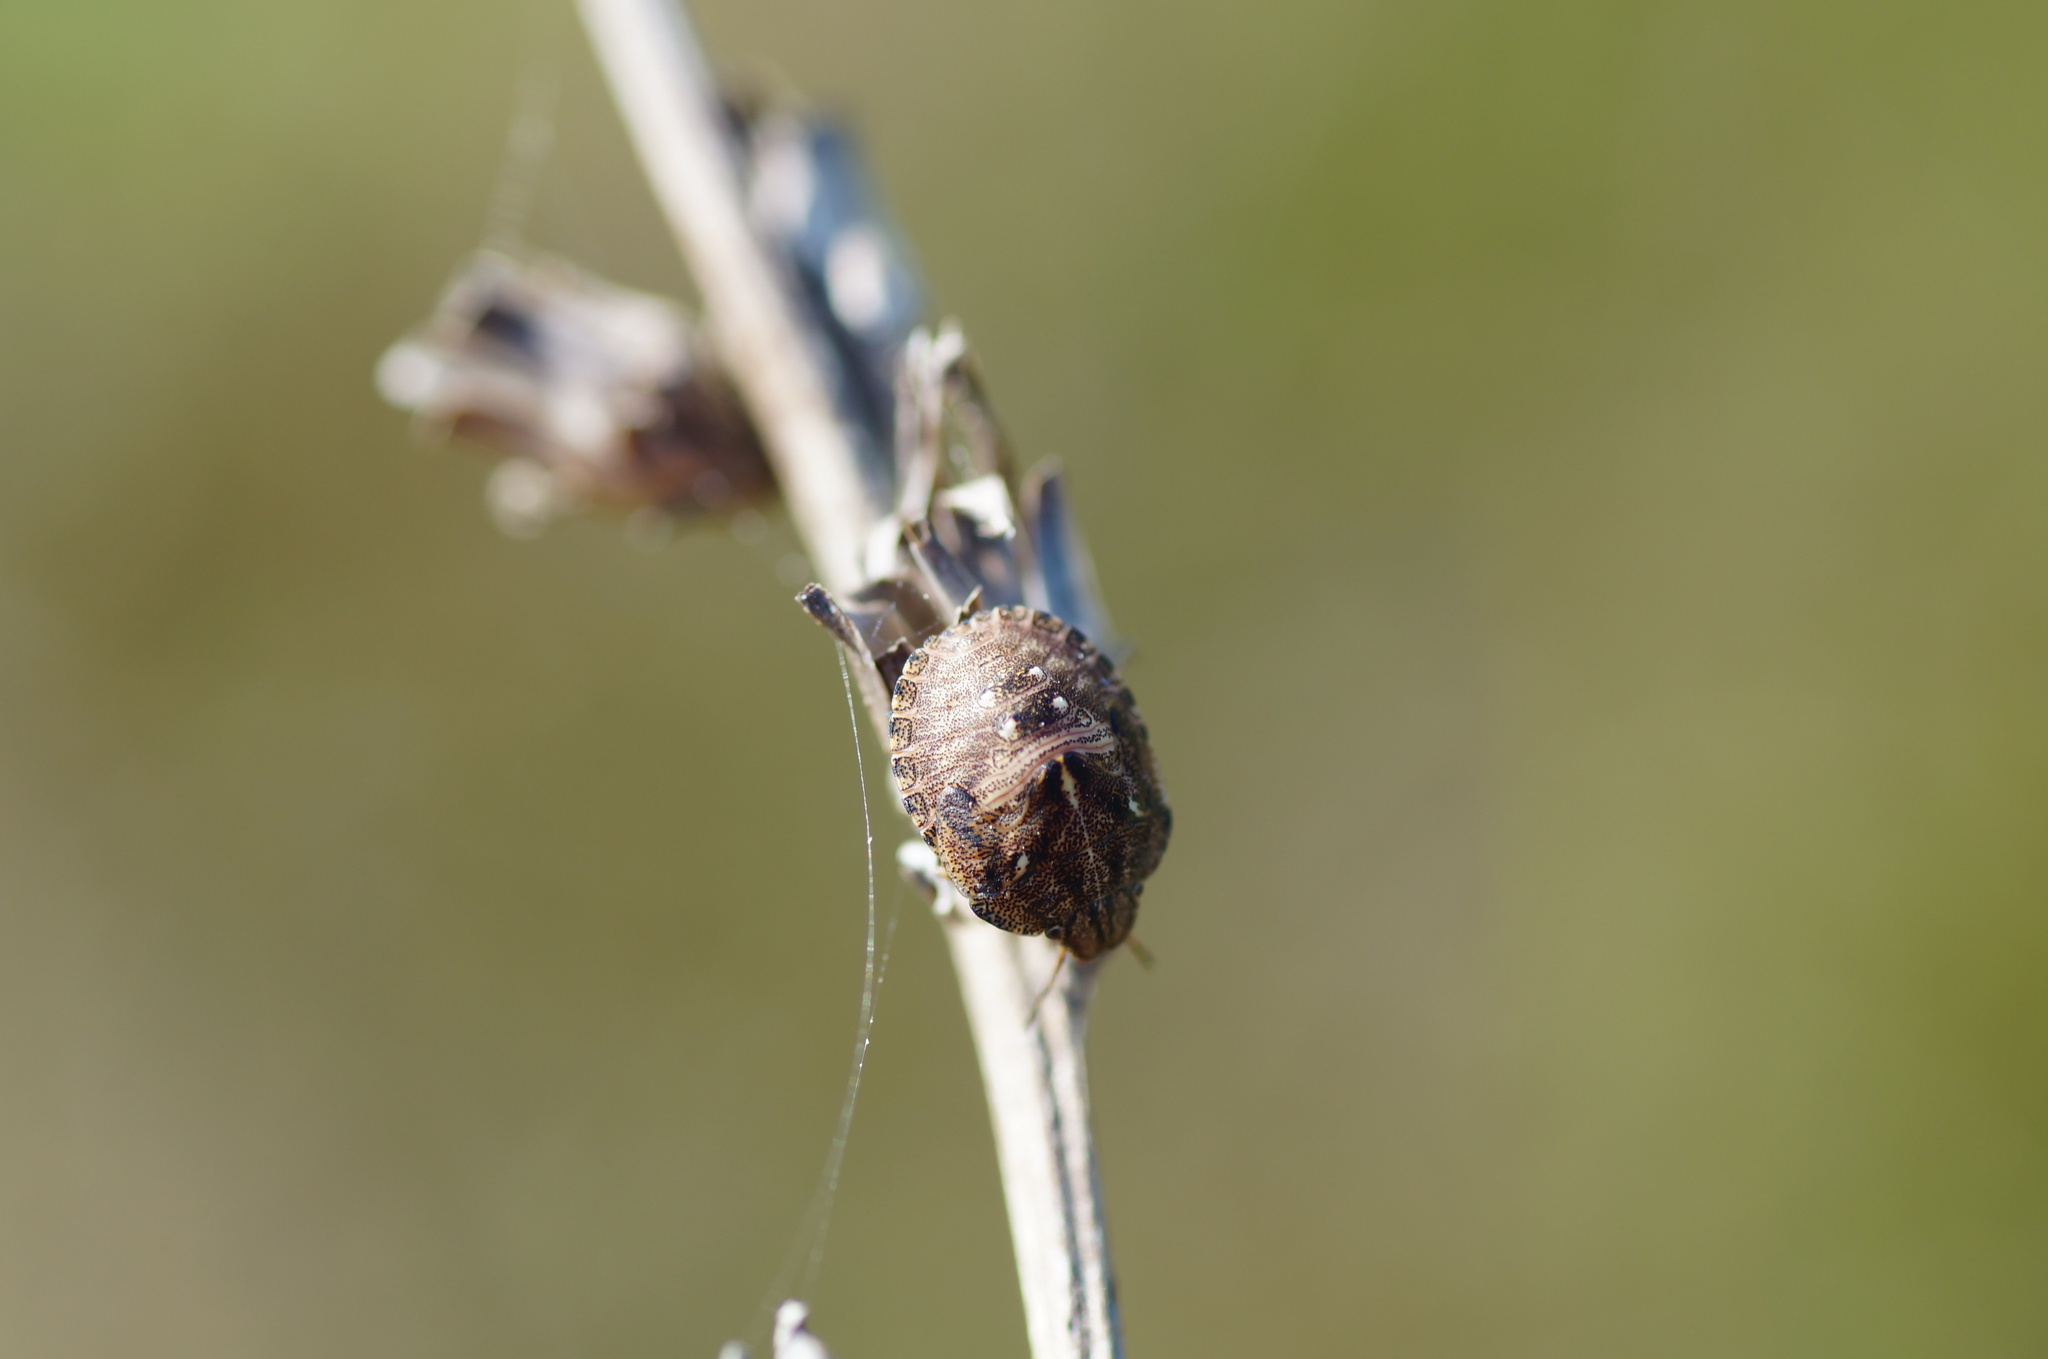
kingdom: Animalia
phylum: Arthropoda
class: Insecta
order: Hemiptera
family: Scutelleridae
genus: Eurygaster
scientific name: Eurygaster testudinaria
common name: Tortoise bug
